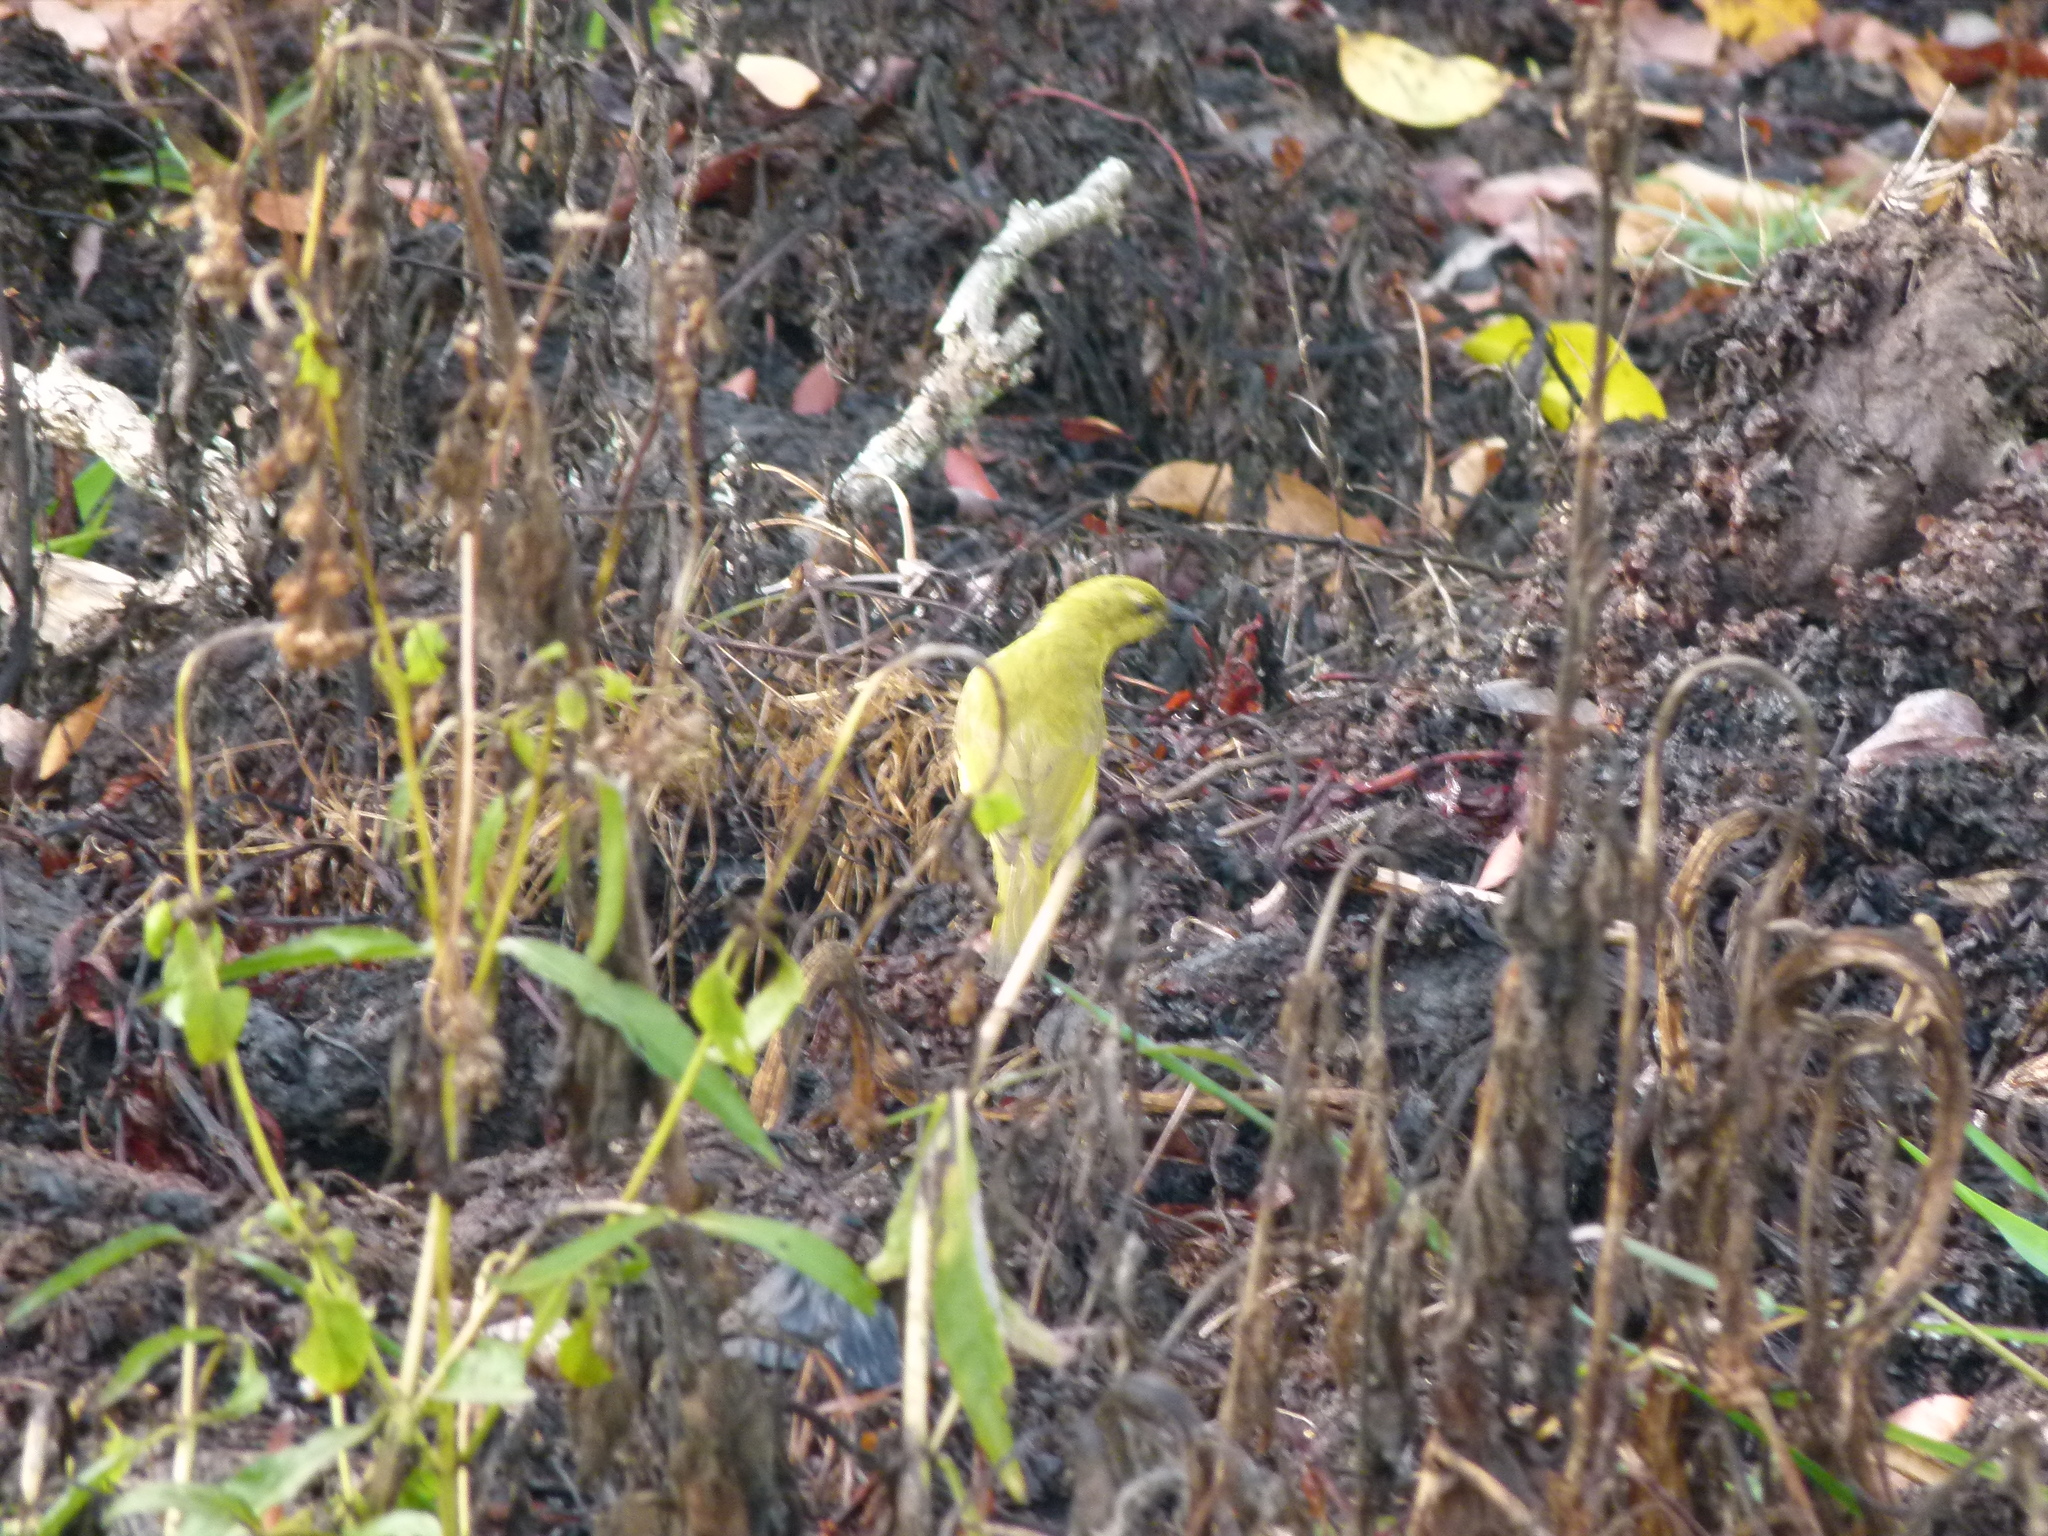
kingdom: Animalia
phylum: Chordata
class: Aves
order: Passeriformes
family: Meliphagidae
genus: Stomiopera
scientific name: Stomiopera flava
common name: Yellow honeyeater
